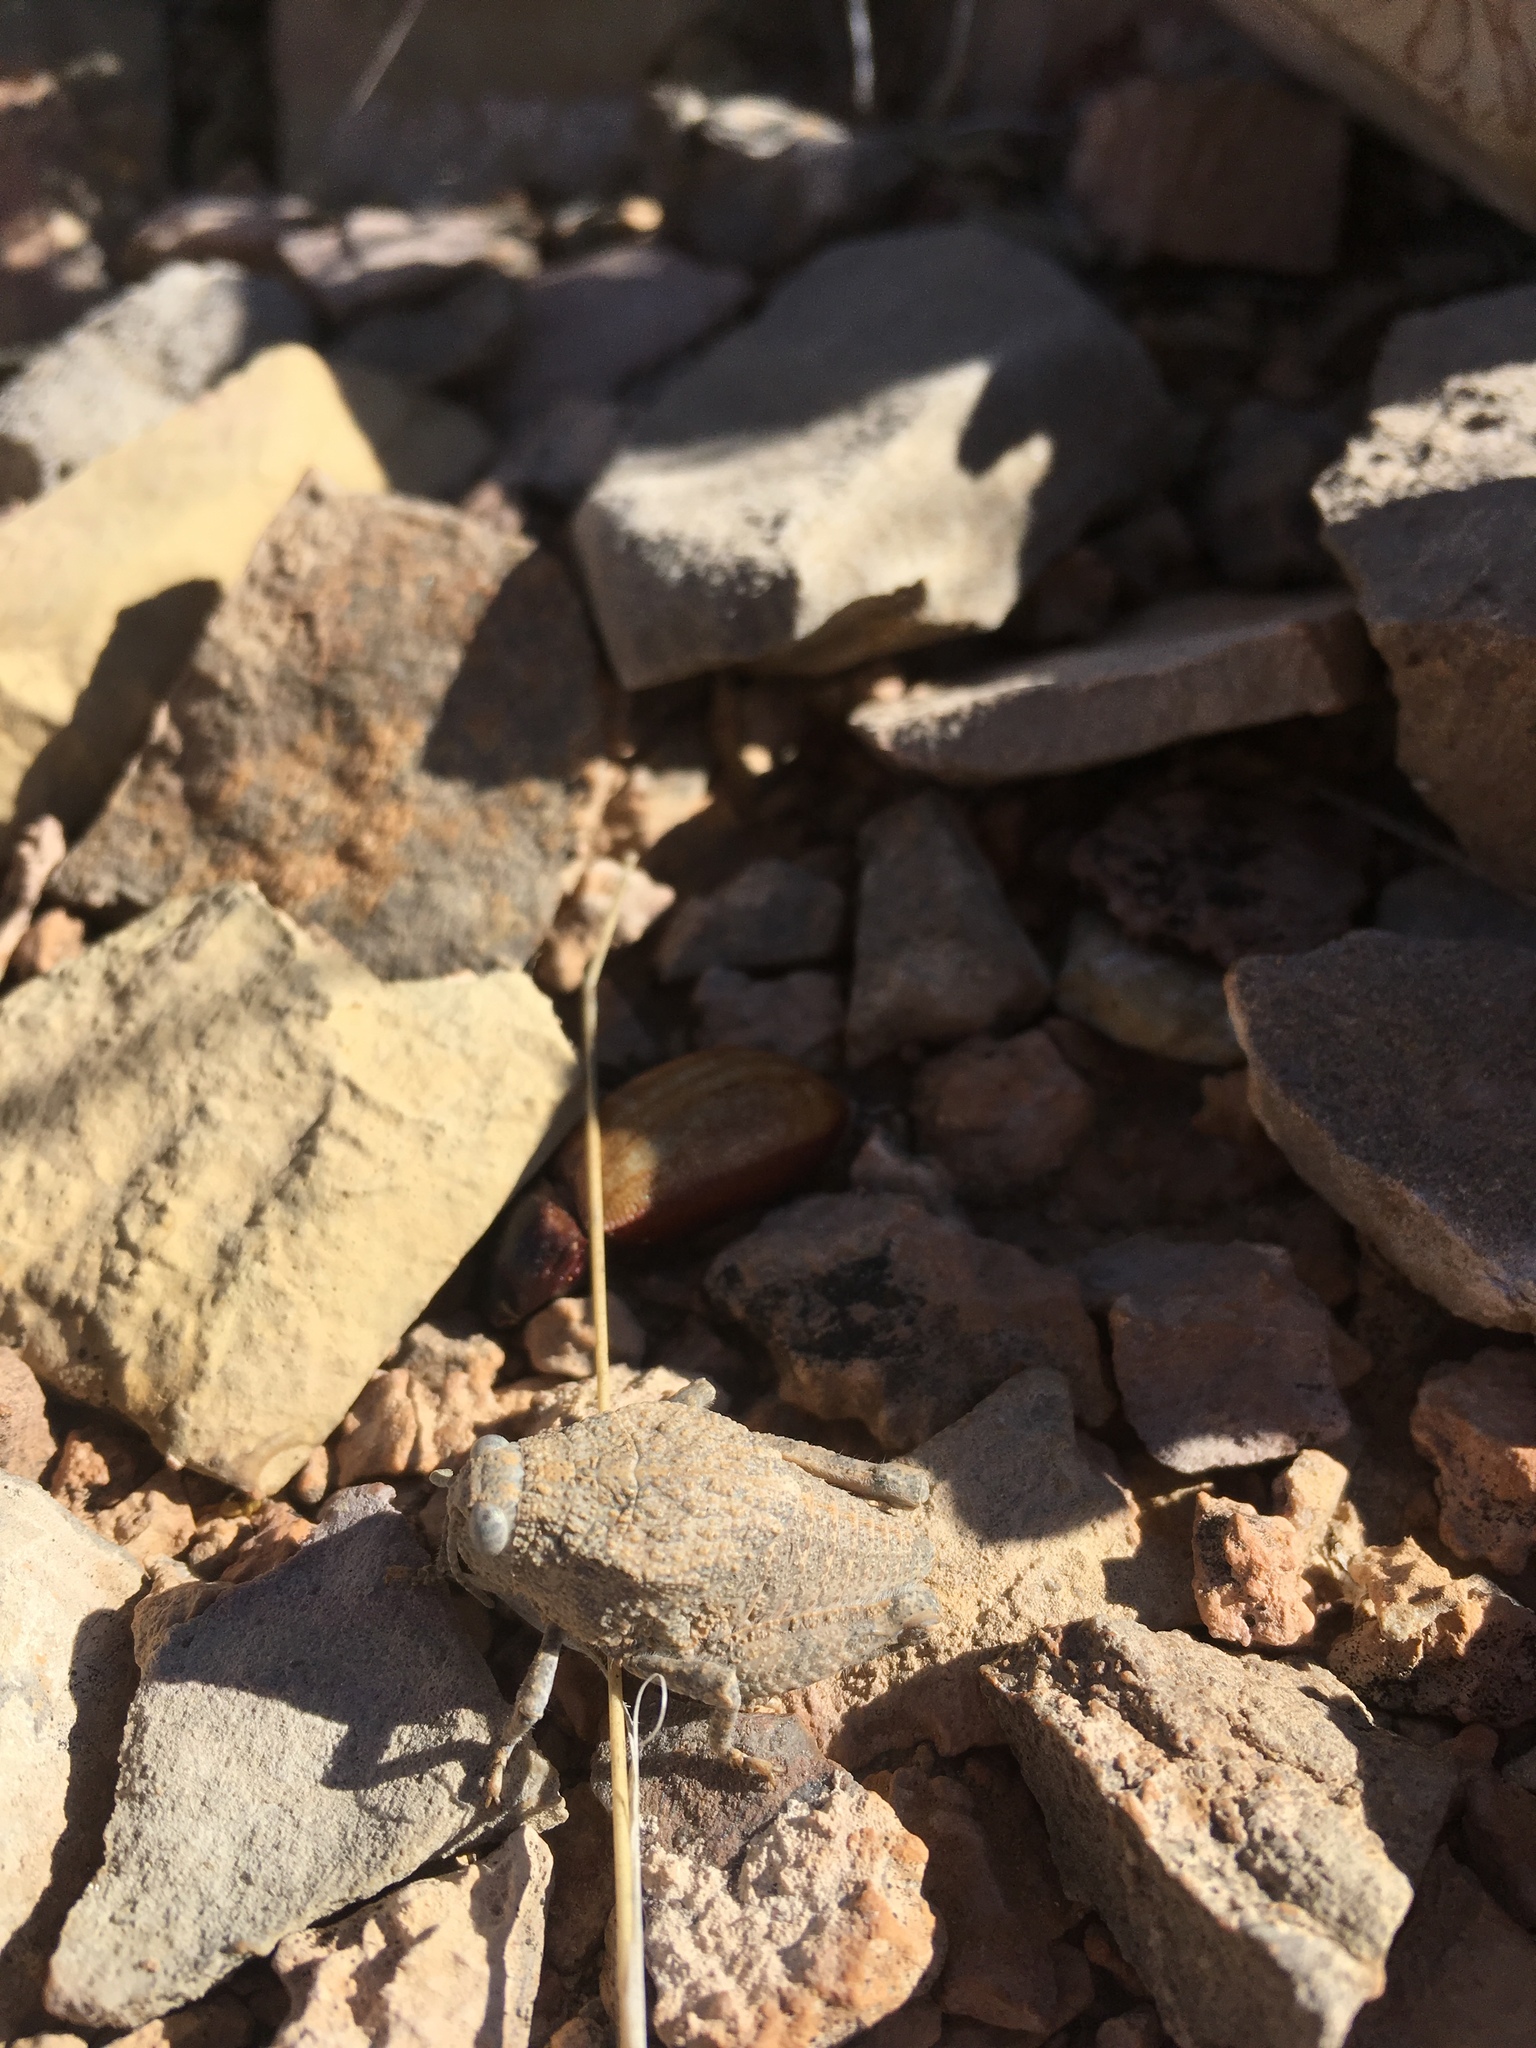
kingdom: Animalia
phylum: Arthropoda
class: Insecta
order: Orthoptera
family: Romaleidae
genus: Phrynotettix
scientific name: Phrynotettix robustus
